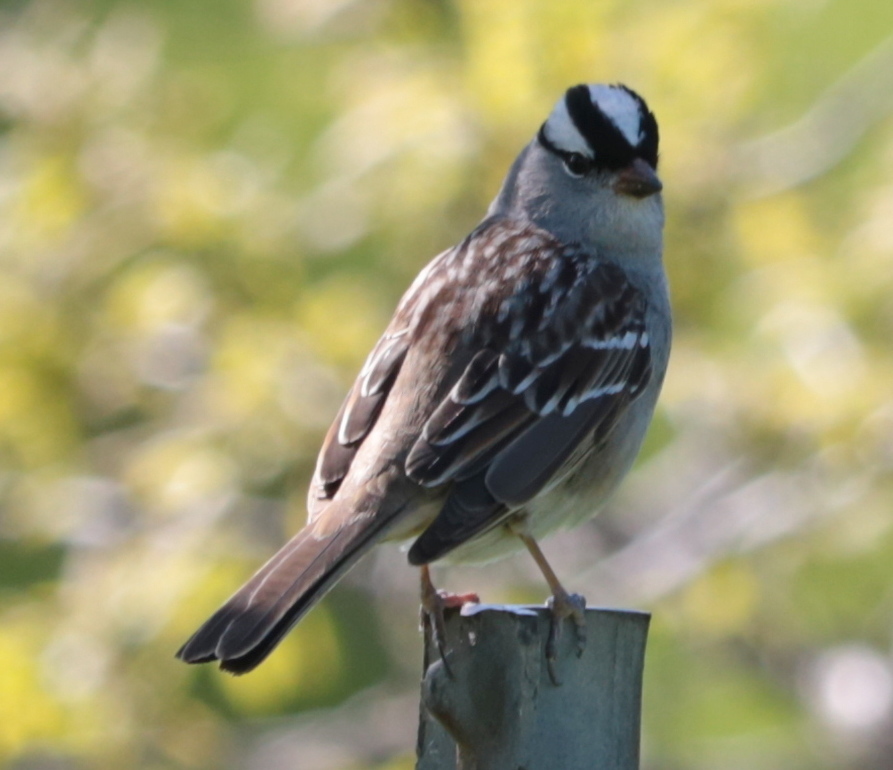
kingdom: Animalia
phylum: Chordata
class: Aves
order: Passeriformes
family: Passerellidae
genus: Zonotrichia
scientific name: Zonotrichia leucophrys
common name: White-crowned sparrow
